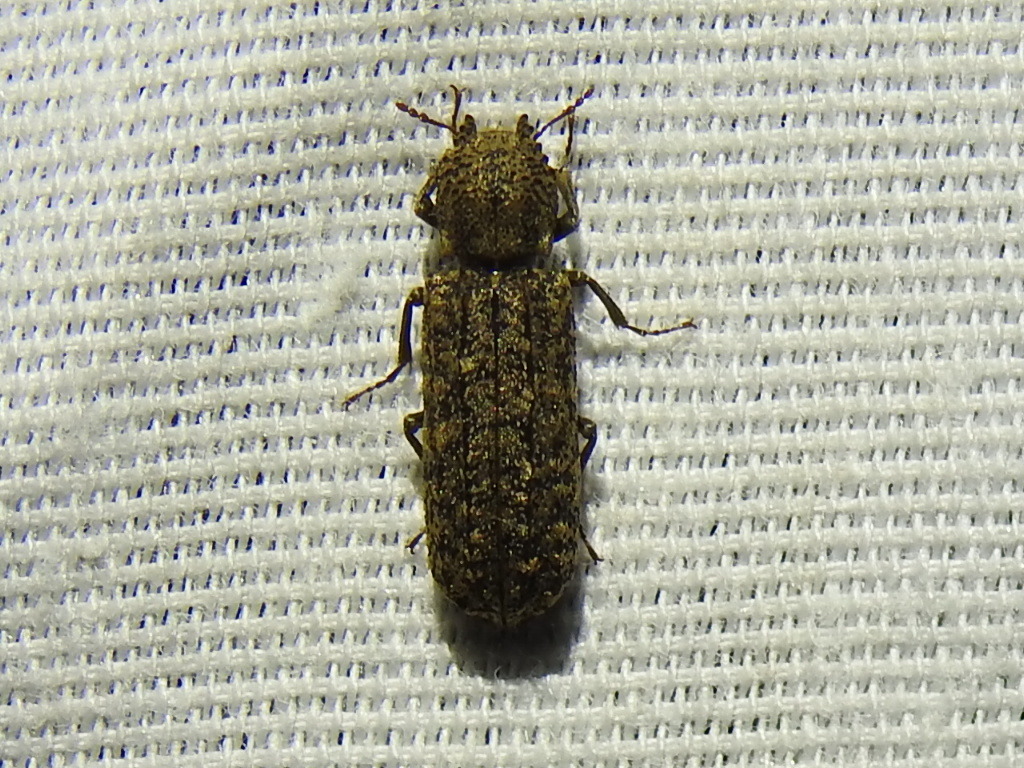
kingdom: Animalia
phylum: Arthropoda
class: Insecta
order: Coleoptera
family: Bostrichidae
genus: Lichenophanes
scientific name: Lichenophanes bicornis
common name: Two-horned powder-post beetle
